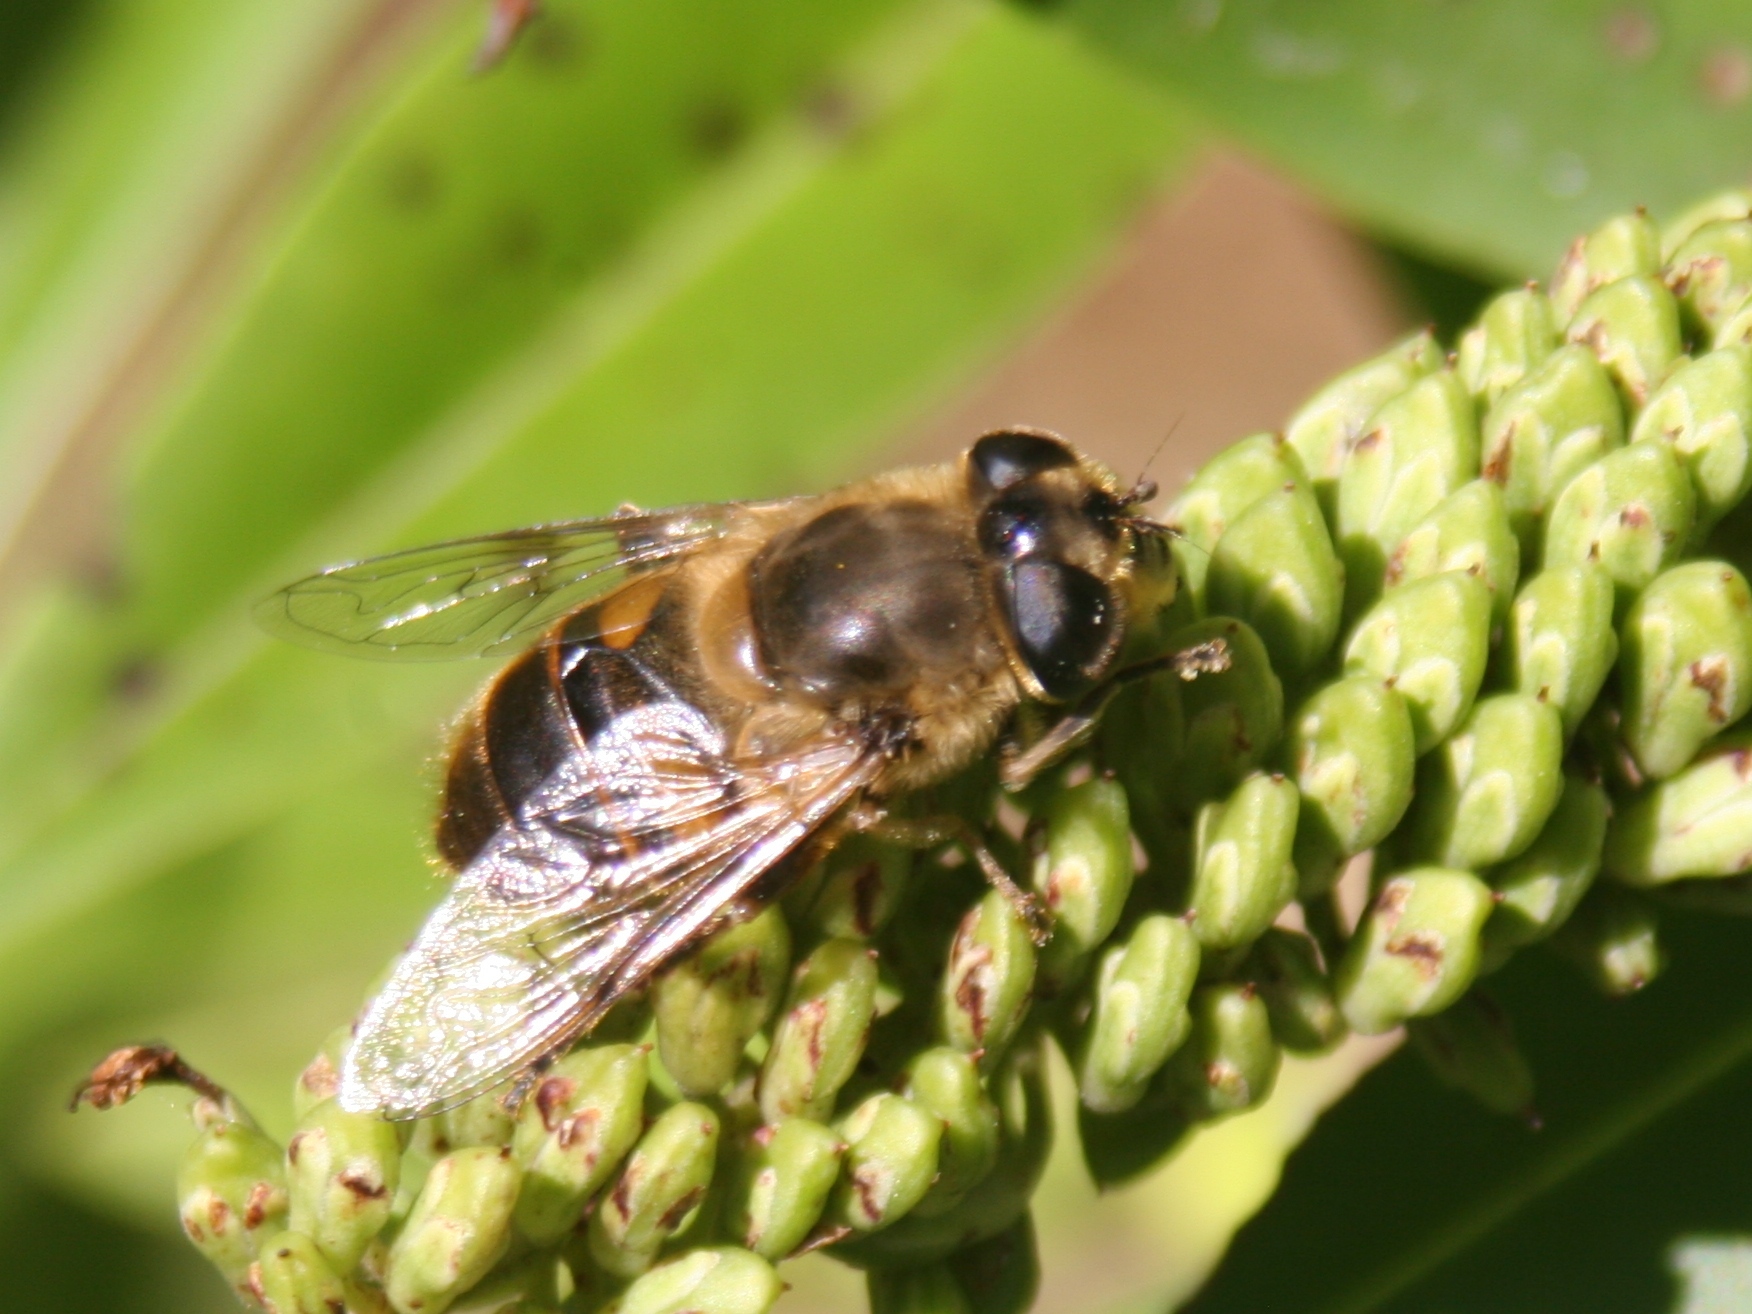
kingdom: Animalia
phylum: Arthropoda
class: Insecta
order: Diptera
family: Syrphidae
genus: Eristalis
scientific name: Eristalis tenax
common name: Drone fly
